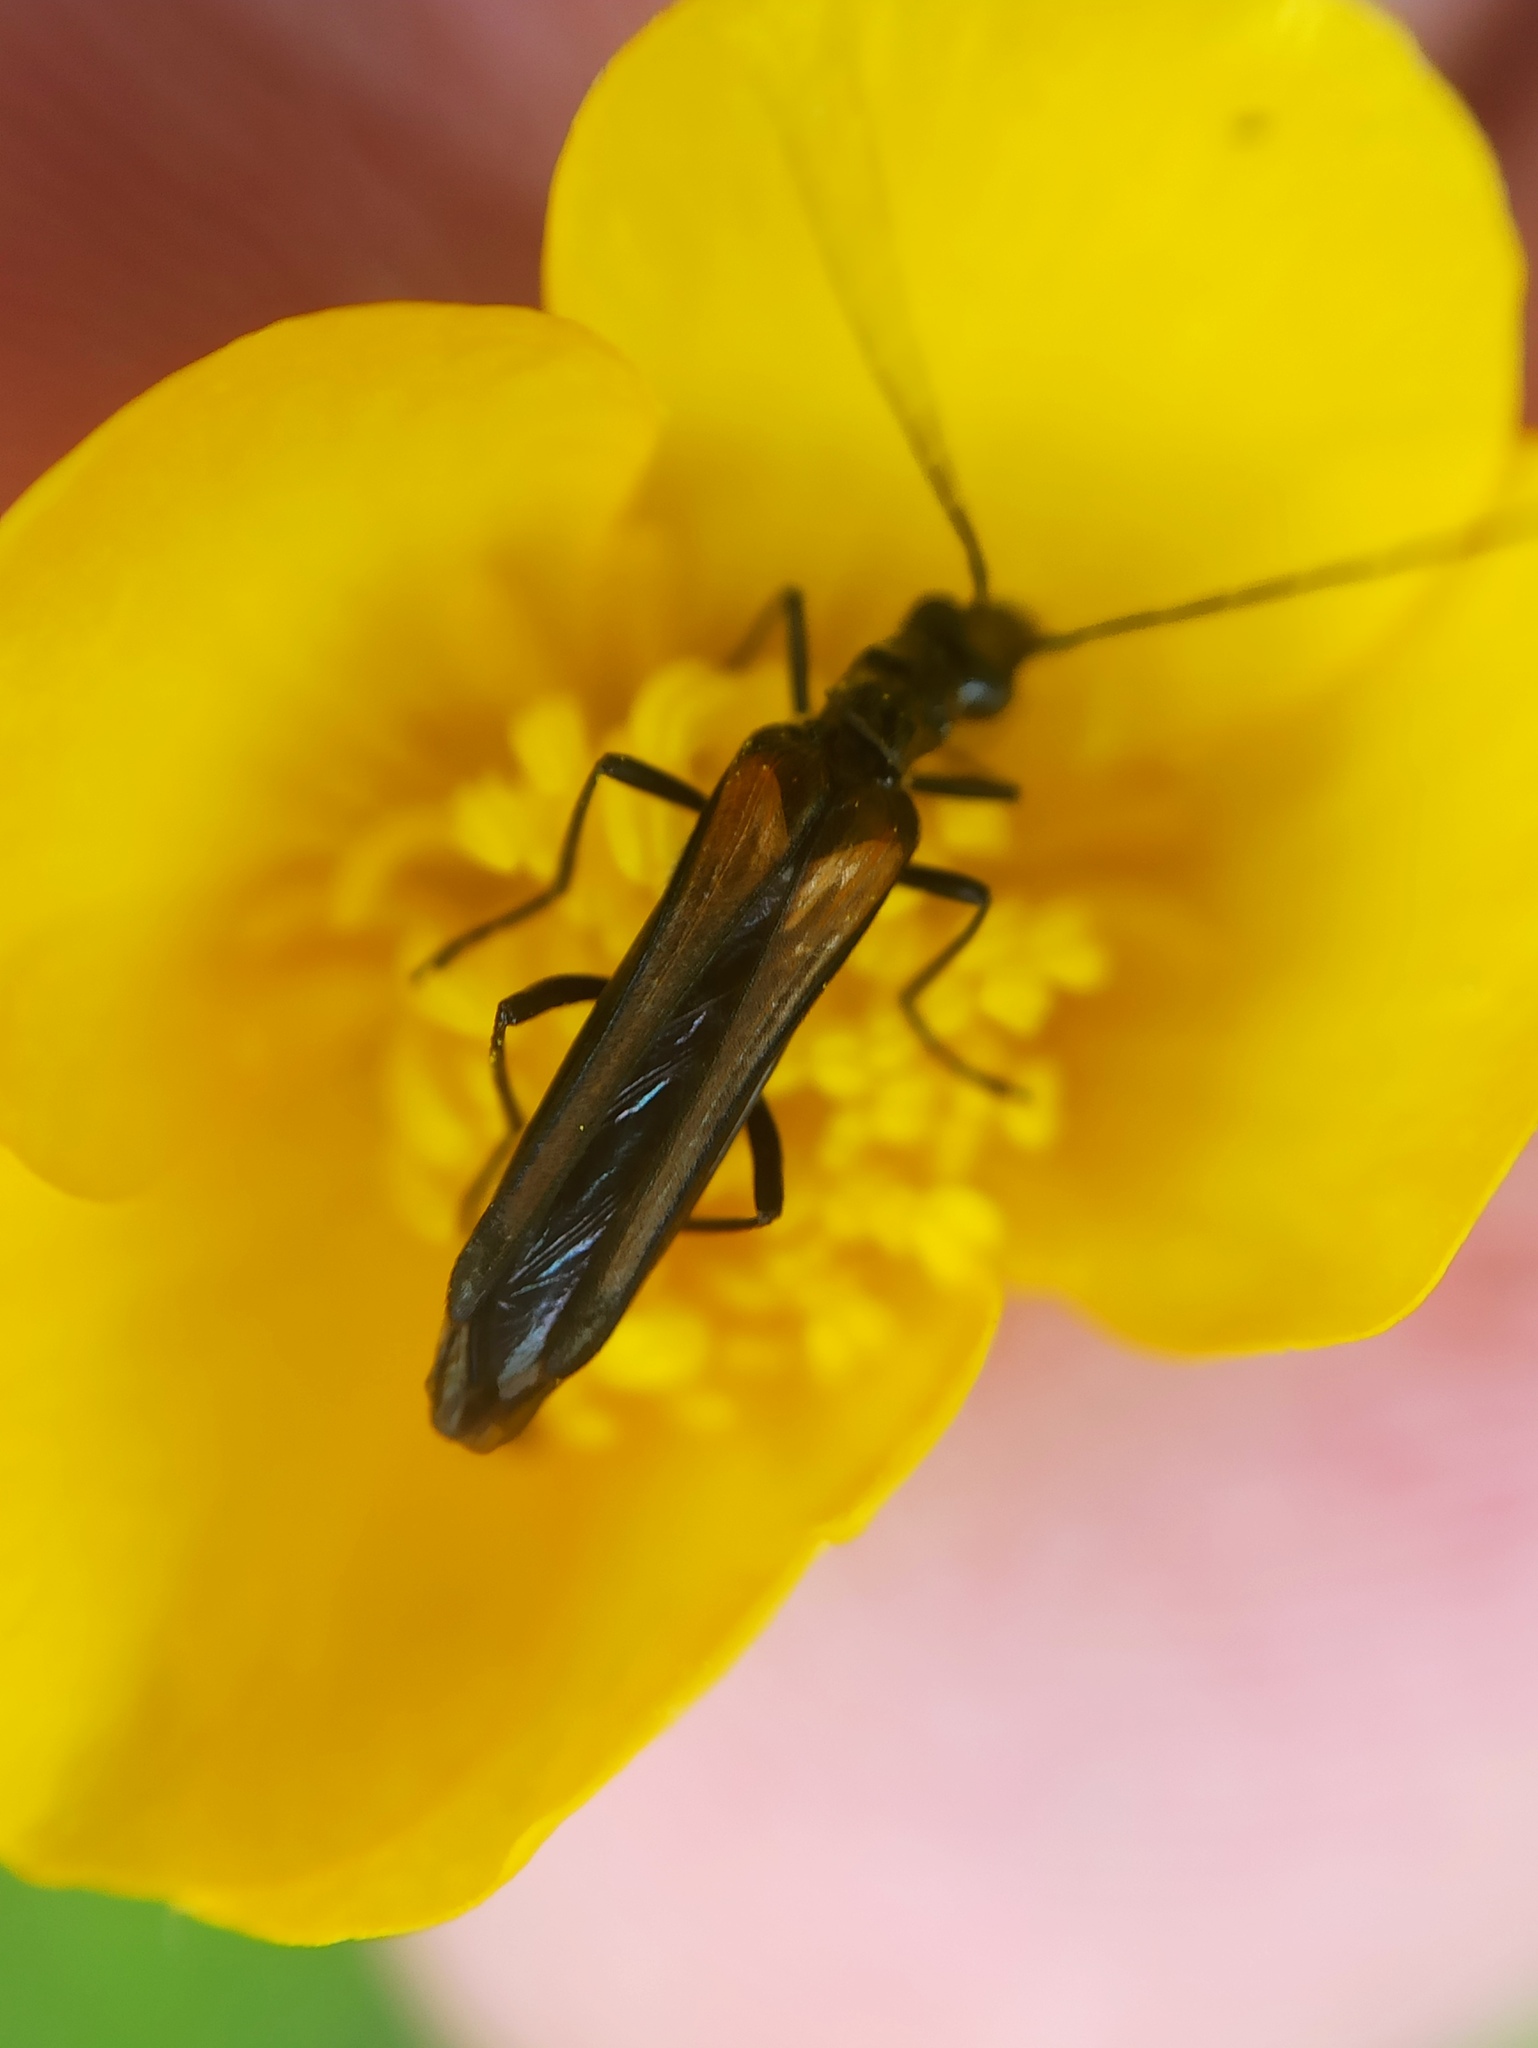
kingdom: Animalia
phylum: Arthropoda
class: Insecta
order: Coleoptera
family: Oedemeridae
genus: Oedemera
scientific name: Oedemera pthysica
